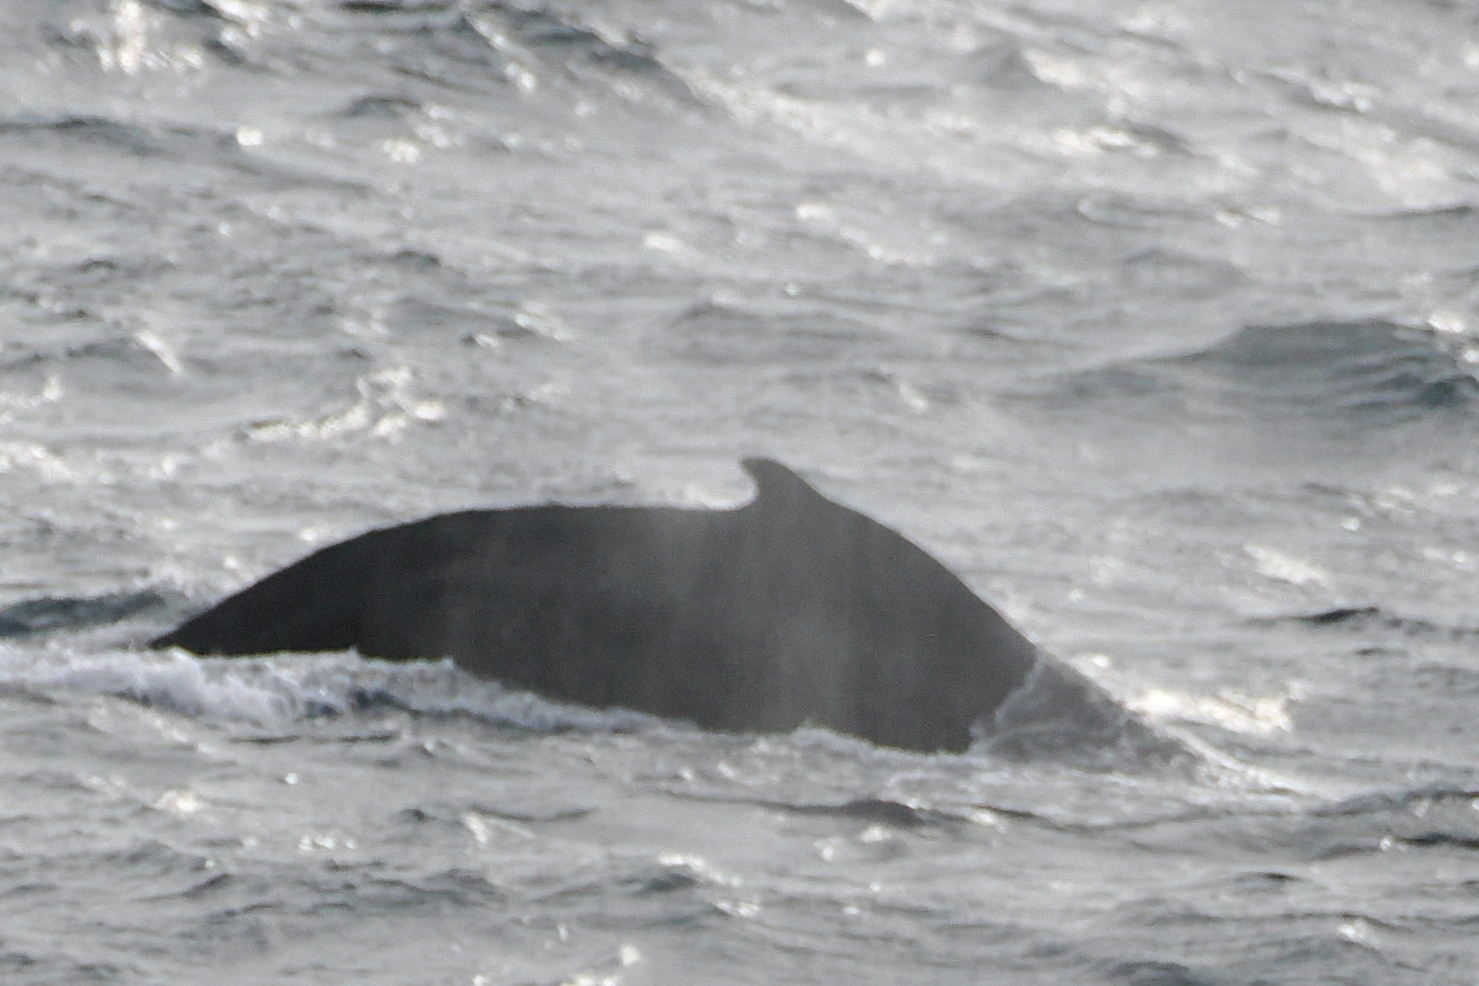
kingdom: Animalia
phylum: Chordata
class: Mammalia
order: Cetacea
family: Balaenopteridae
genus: Megaptera
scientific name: Megaptera novaeangliae
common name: Humpback whale
